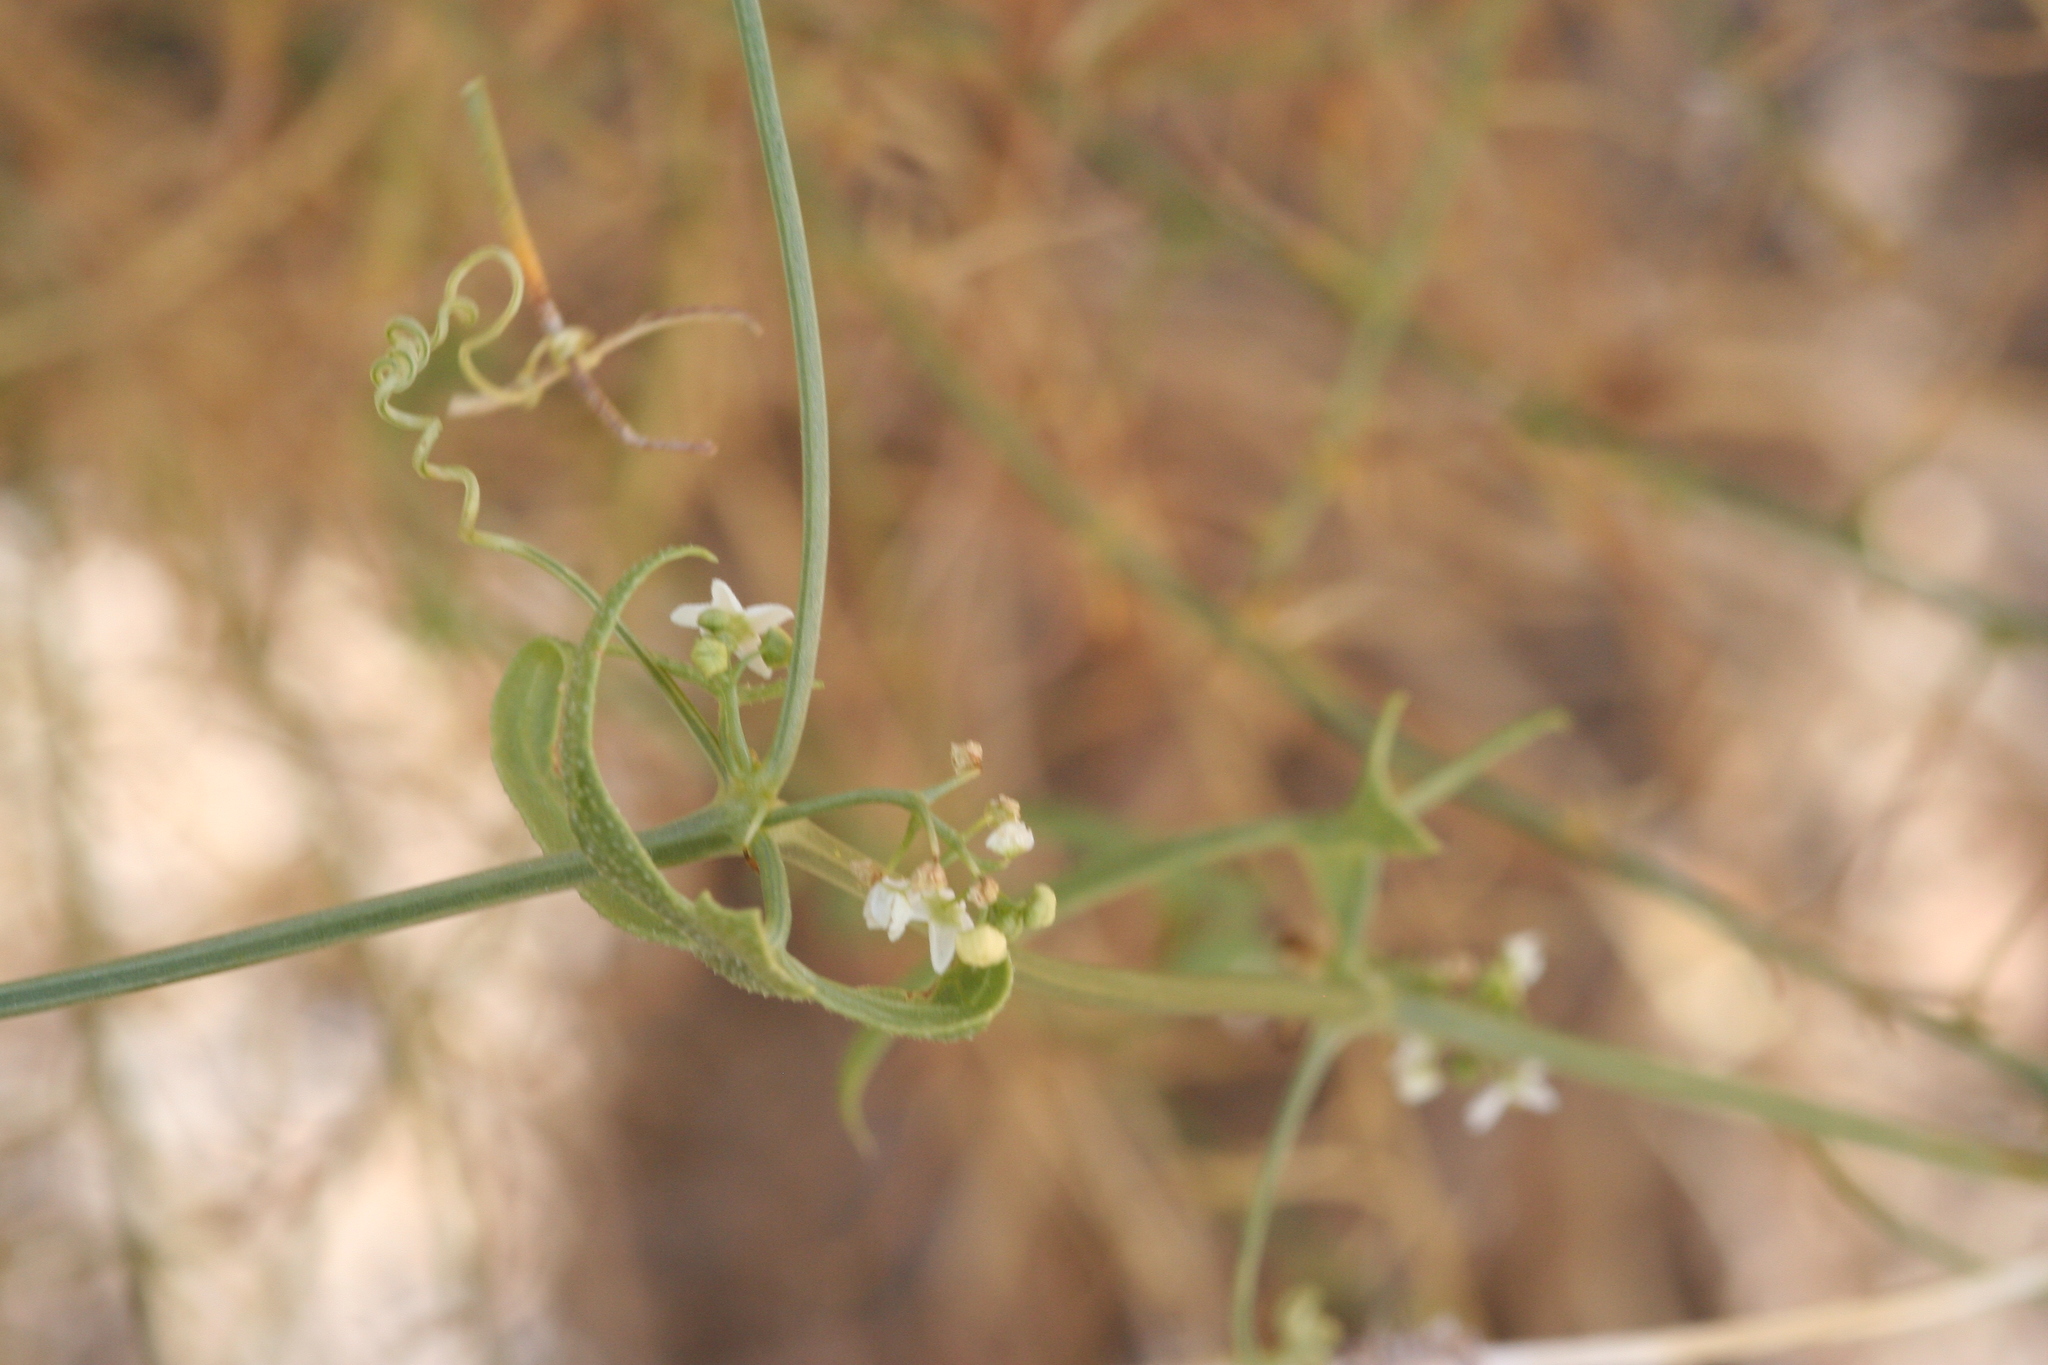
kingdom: Plantae
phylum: Tracheophyta
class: Magnoliopsida
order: Cucurbitales
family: Cucurbitaceae
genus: Echinopepon
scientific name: Echinopepon bigelovii
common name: Desert starvine
